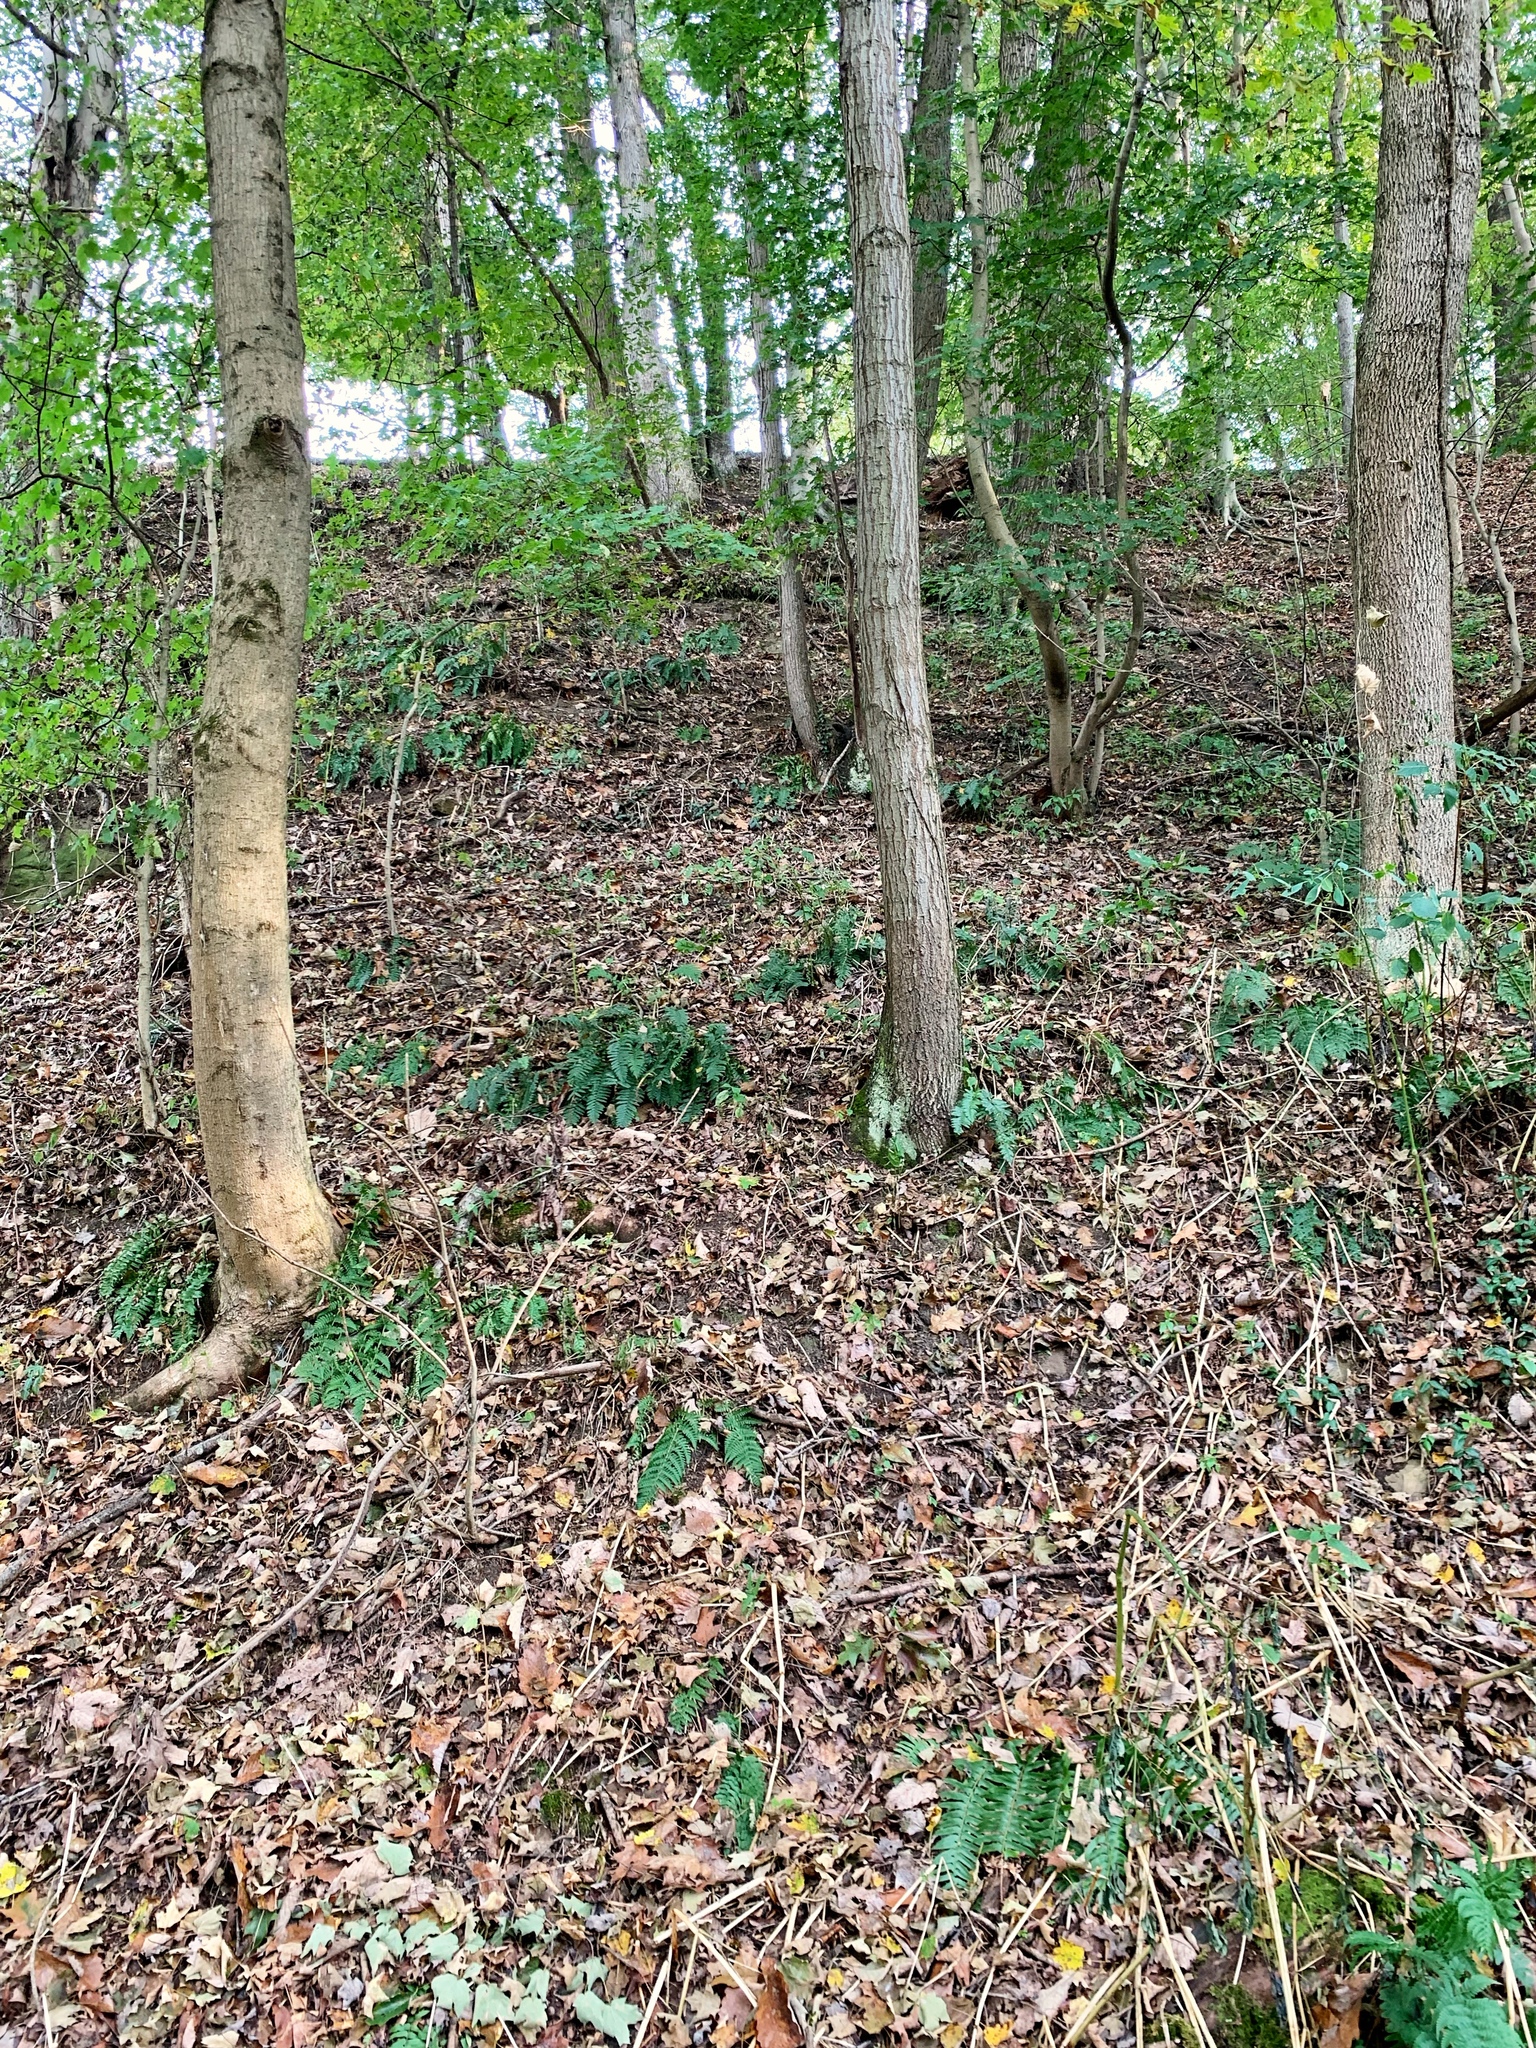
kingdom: Plantae
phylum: Tracheophyta
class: Polypodiopsida
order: Polypodiales
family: Dryopteridaceae
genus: Dryopteris
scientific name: Dryopteris marginalis
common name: Marginal wood fern
